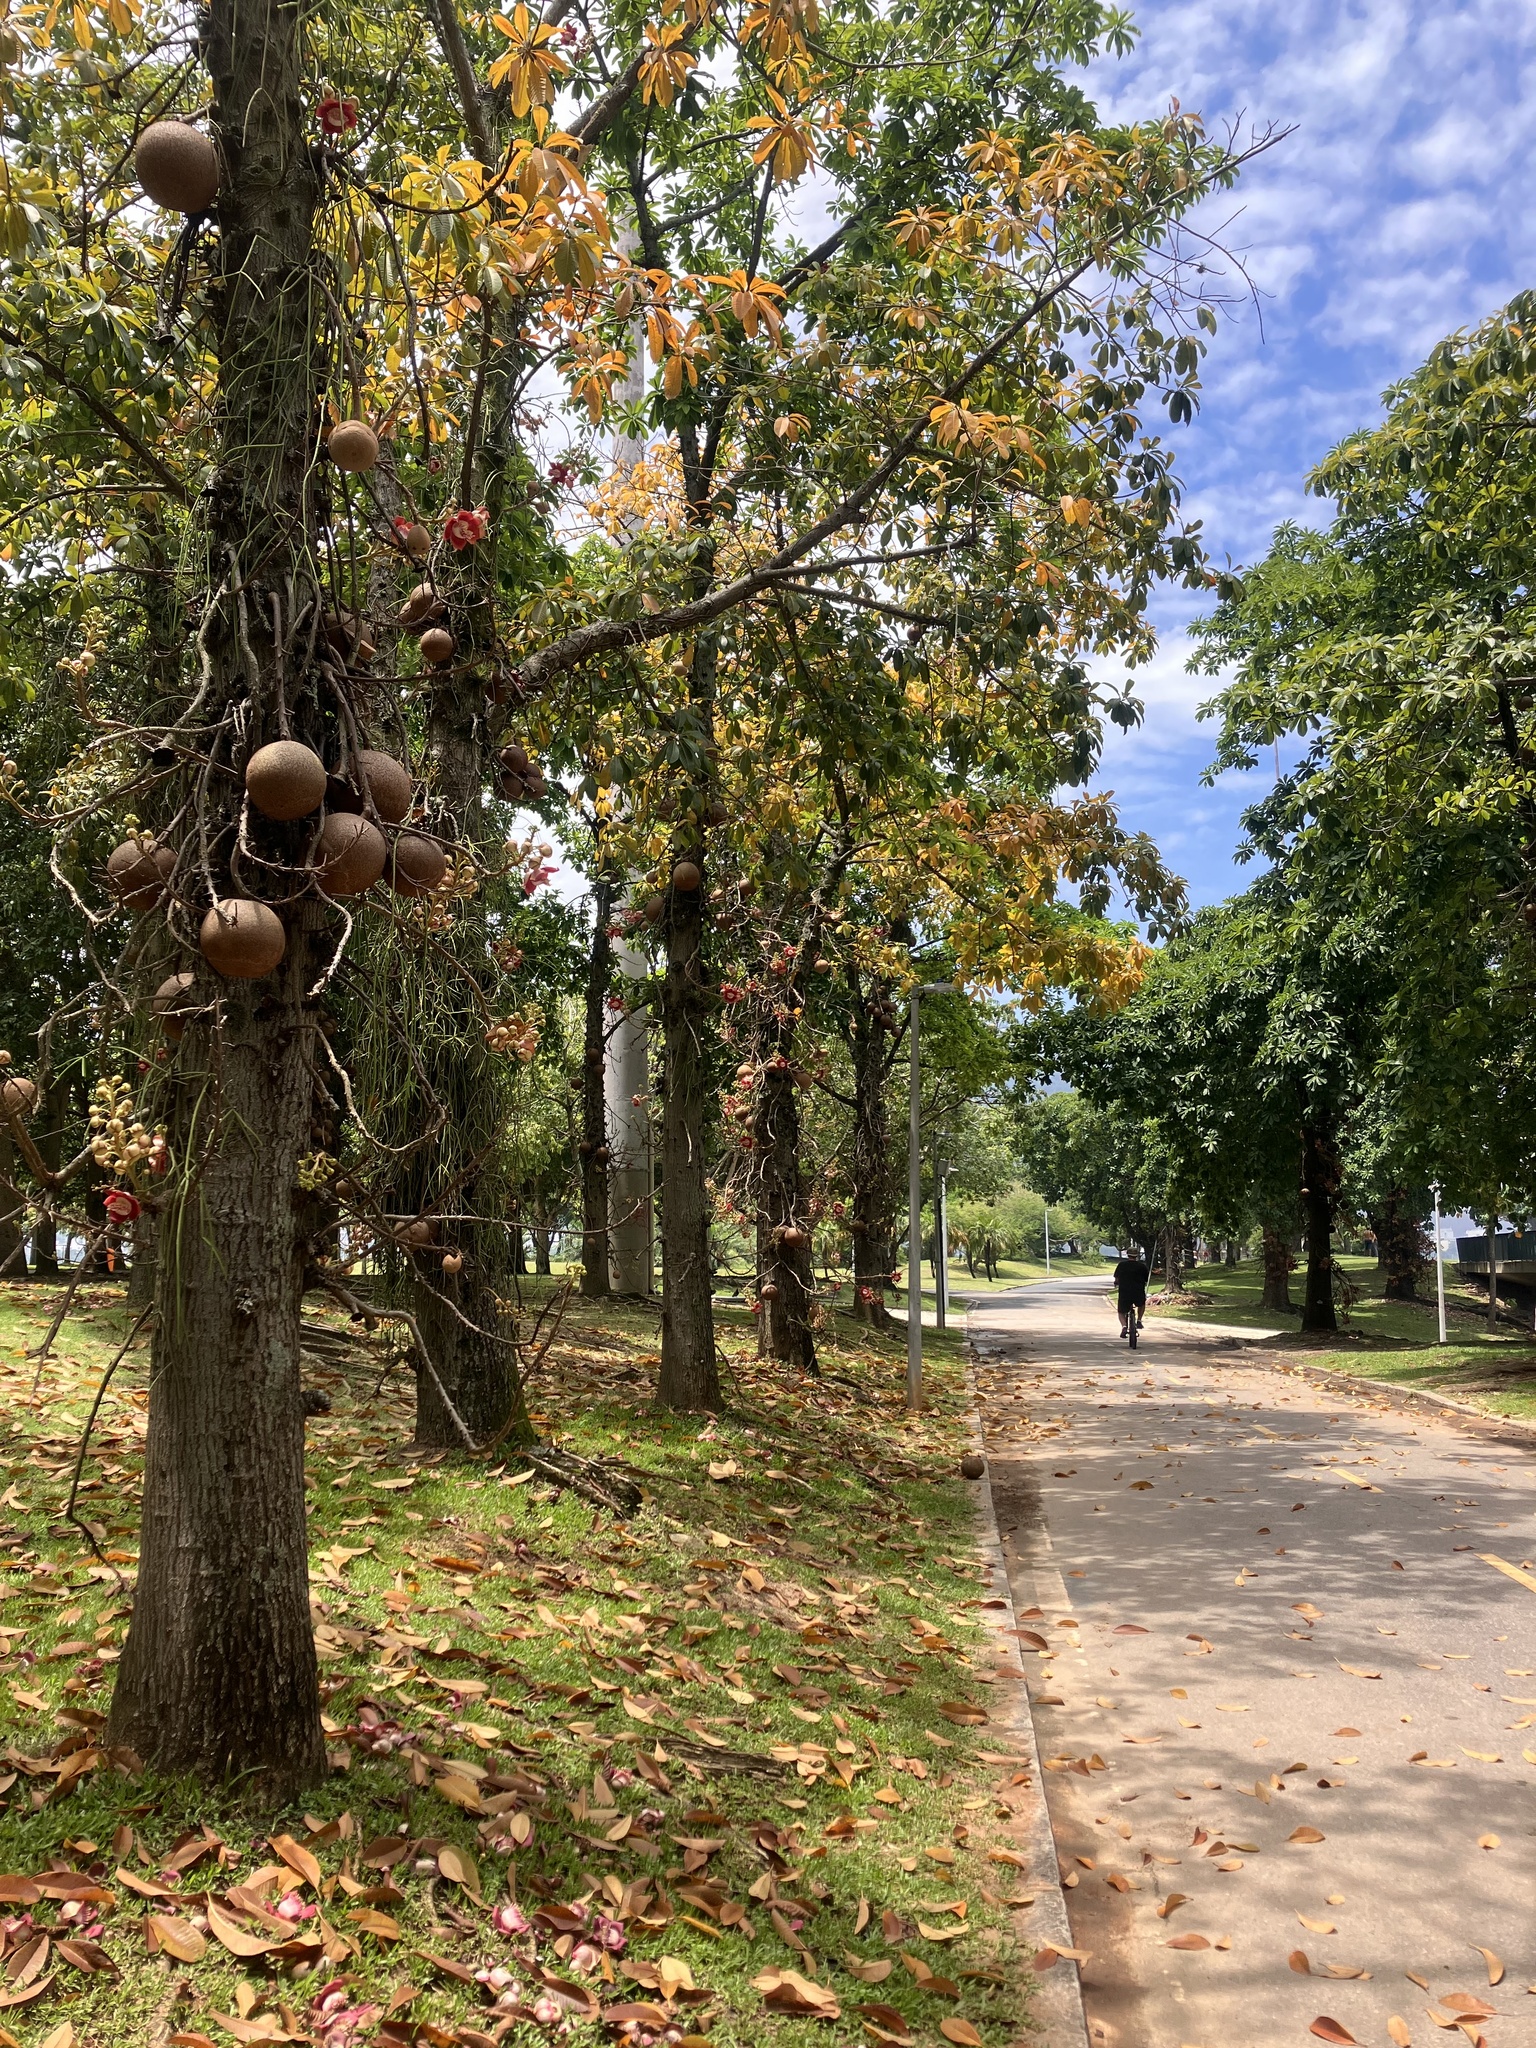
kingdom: Plantae
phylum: Tracheophyta
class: Magnoliopsida
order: Ericales
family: Lecythidaceae
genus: Couroupita
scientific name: Couroupita guianensis
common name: Cannonball tree
